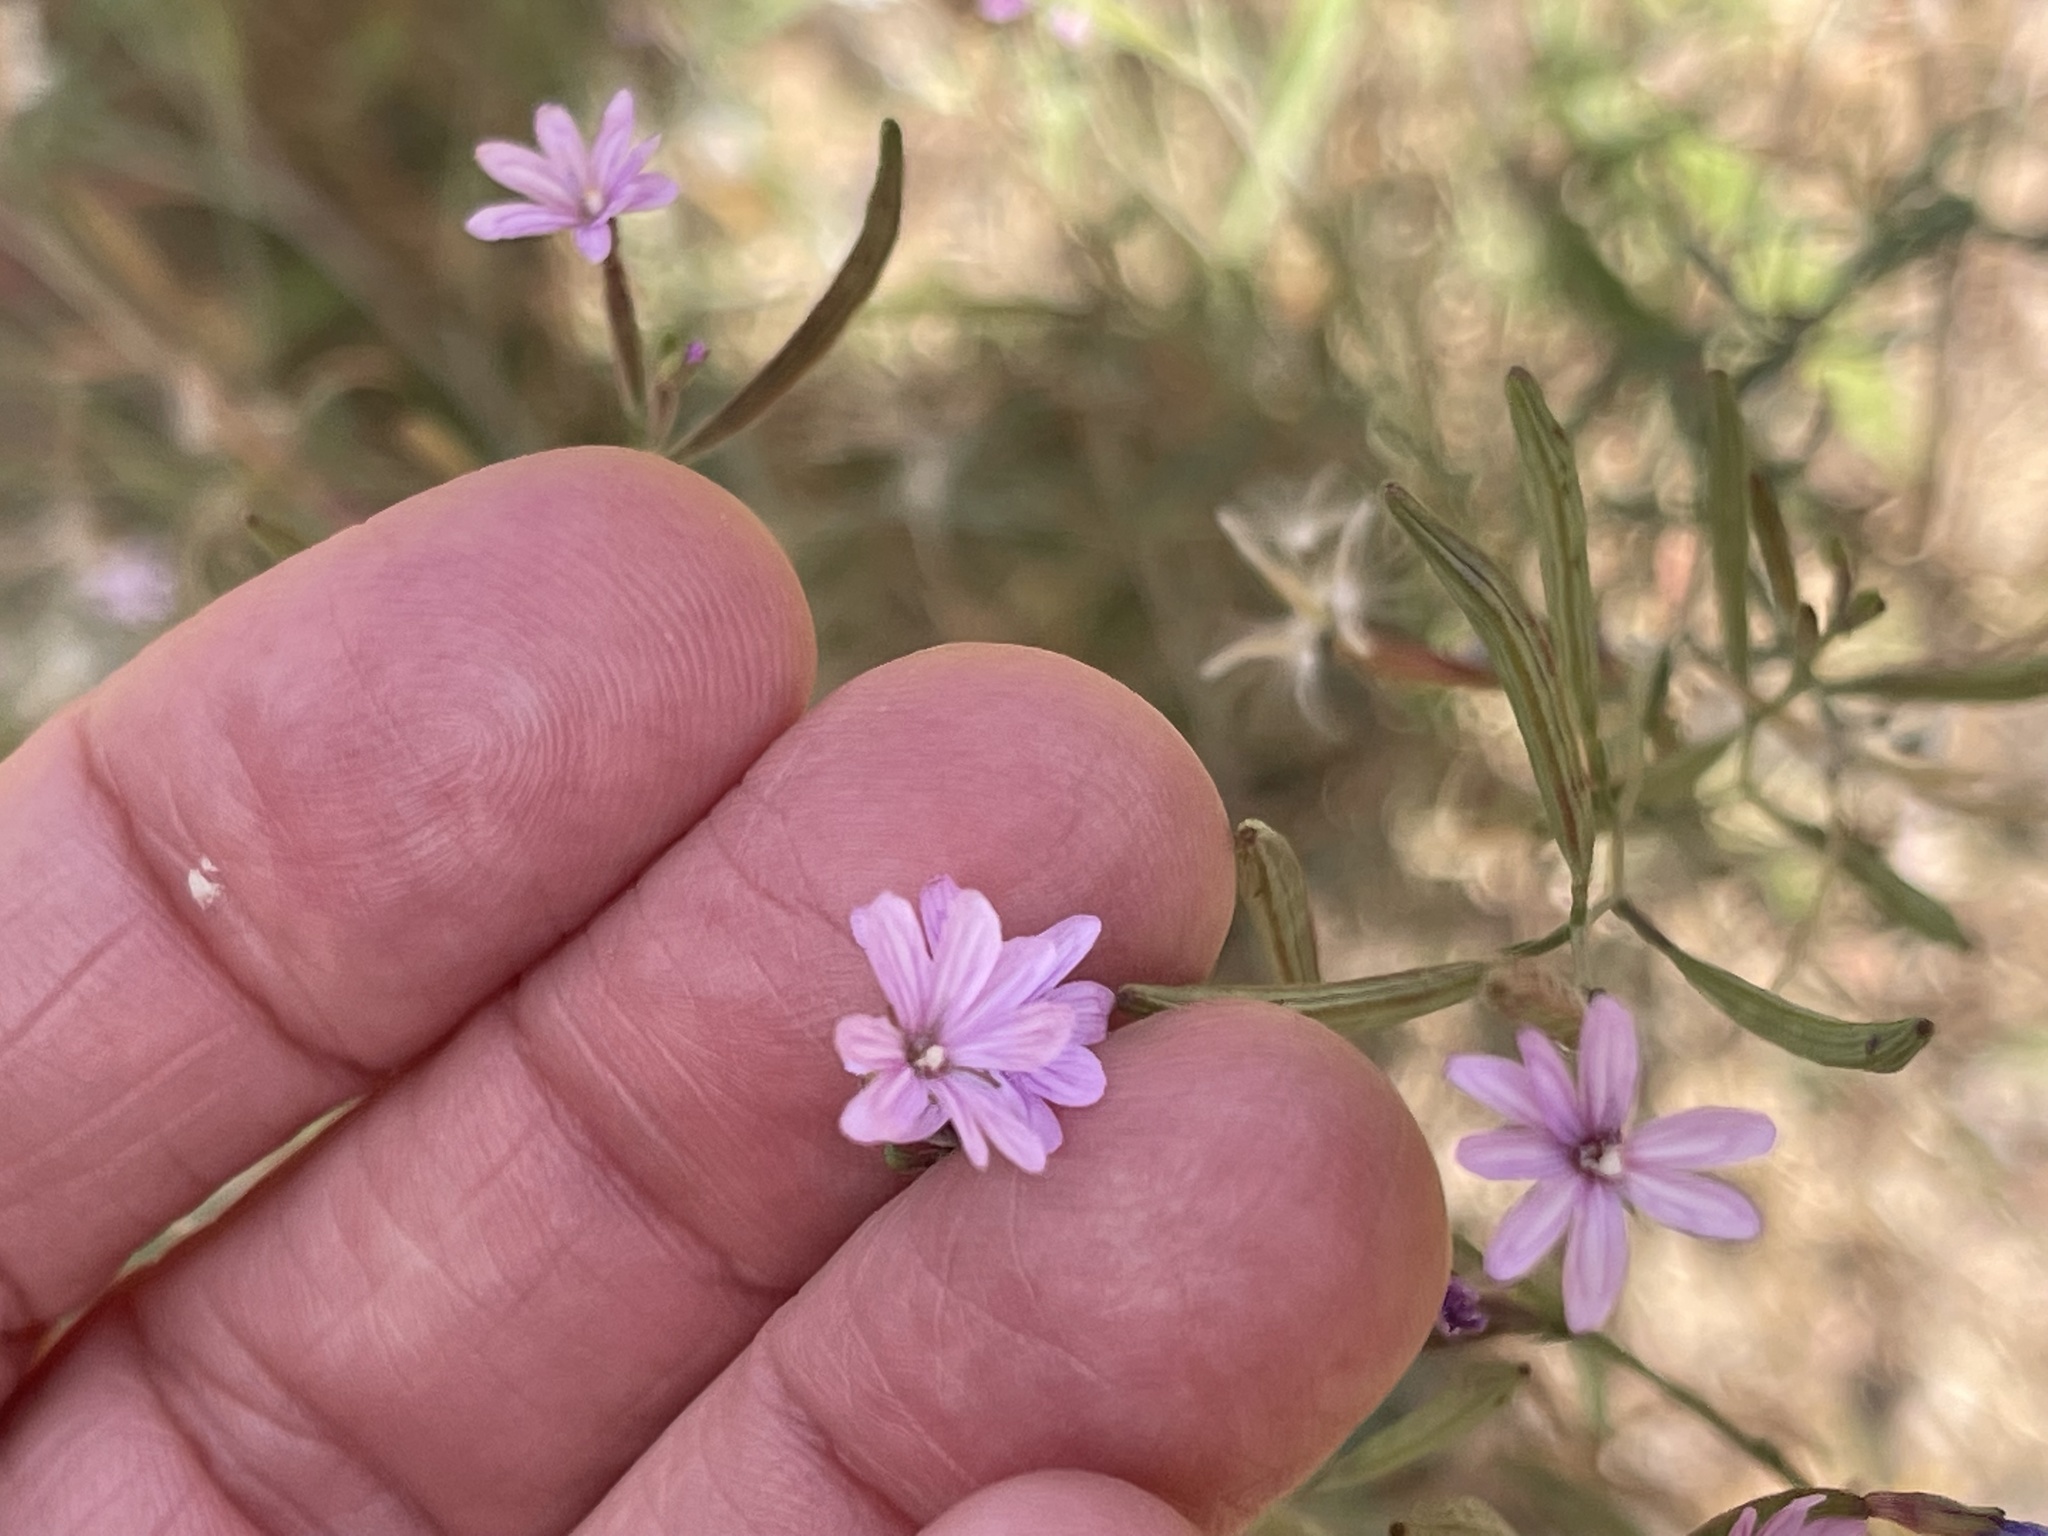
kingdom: Plantae
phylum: Tracheophyta
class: Magnoliopsida
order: Myrtales
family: Onagraceae
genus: Epilobium
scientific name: Epilobium brachycarpum
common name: Annual willowherb
